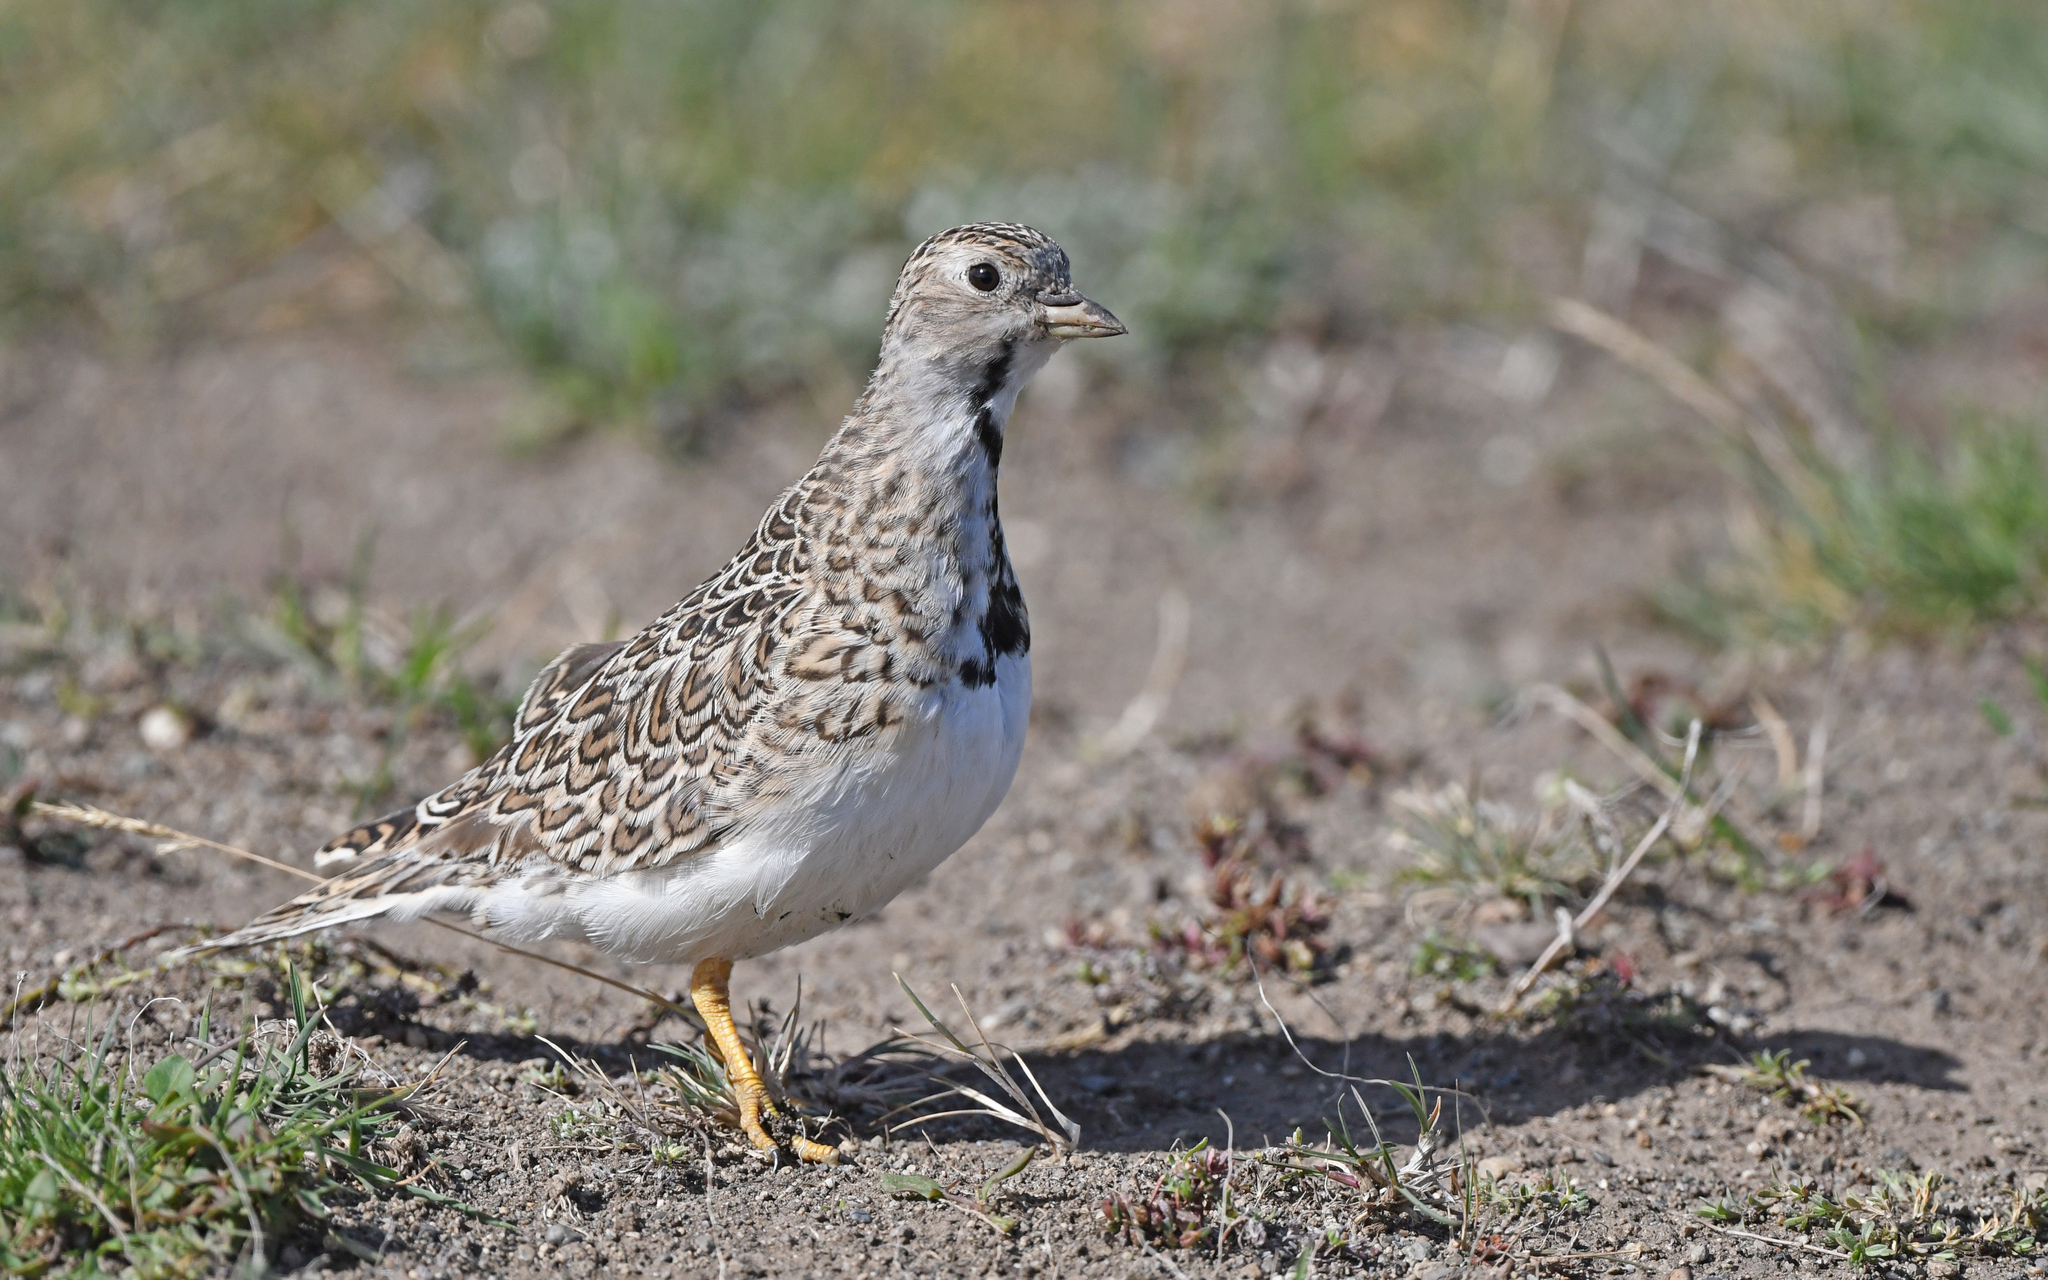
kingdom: Animalia
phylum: Chordata
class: Aves
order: Charadriiformes
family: Thinocoridae
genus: Thinocorus
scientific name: Thinocorus rumicivorus
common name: Least seedsnipe
